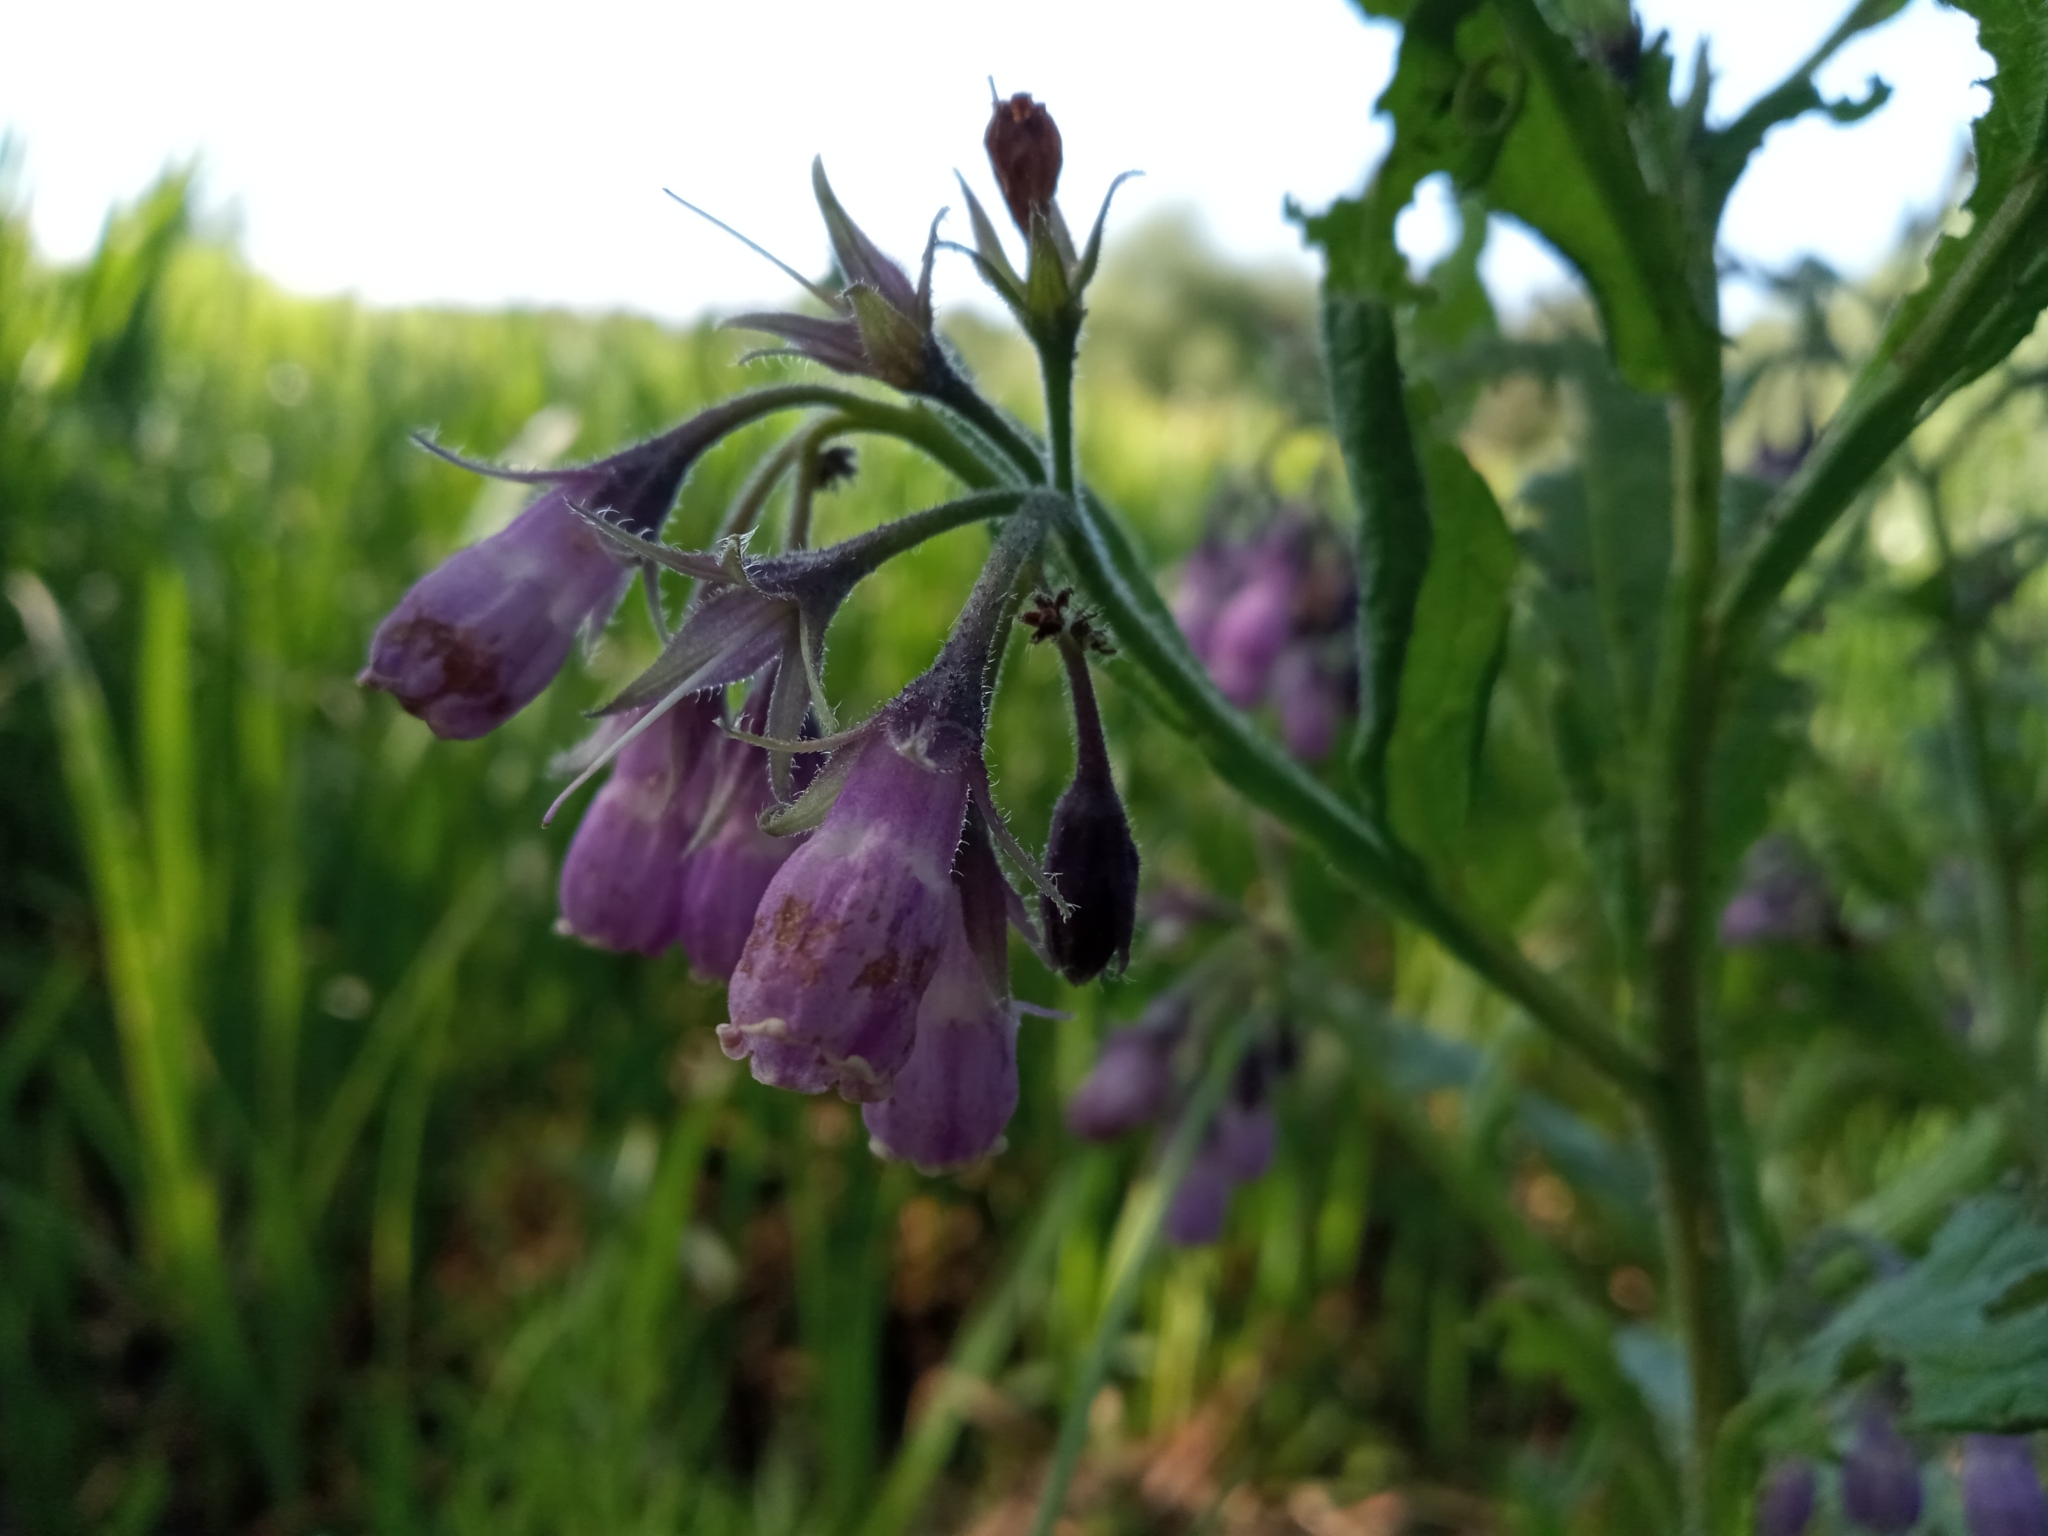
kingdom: Plantae
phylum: Tracheophyta
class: Magnoliopsida
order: Boraginales
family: Boraginaceae
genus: Symphytum
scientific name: Symphytum officinale
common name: Common comfrey
